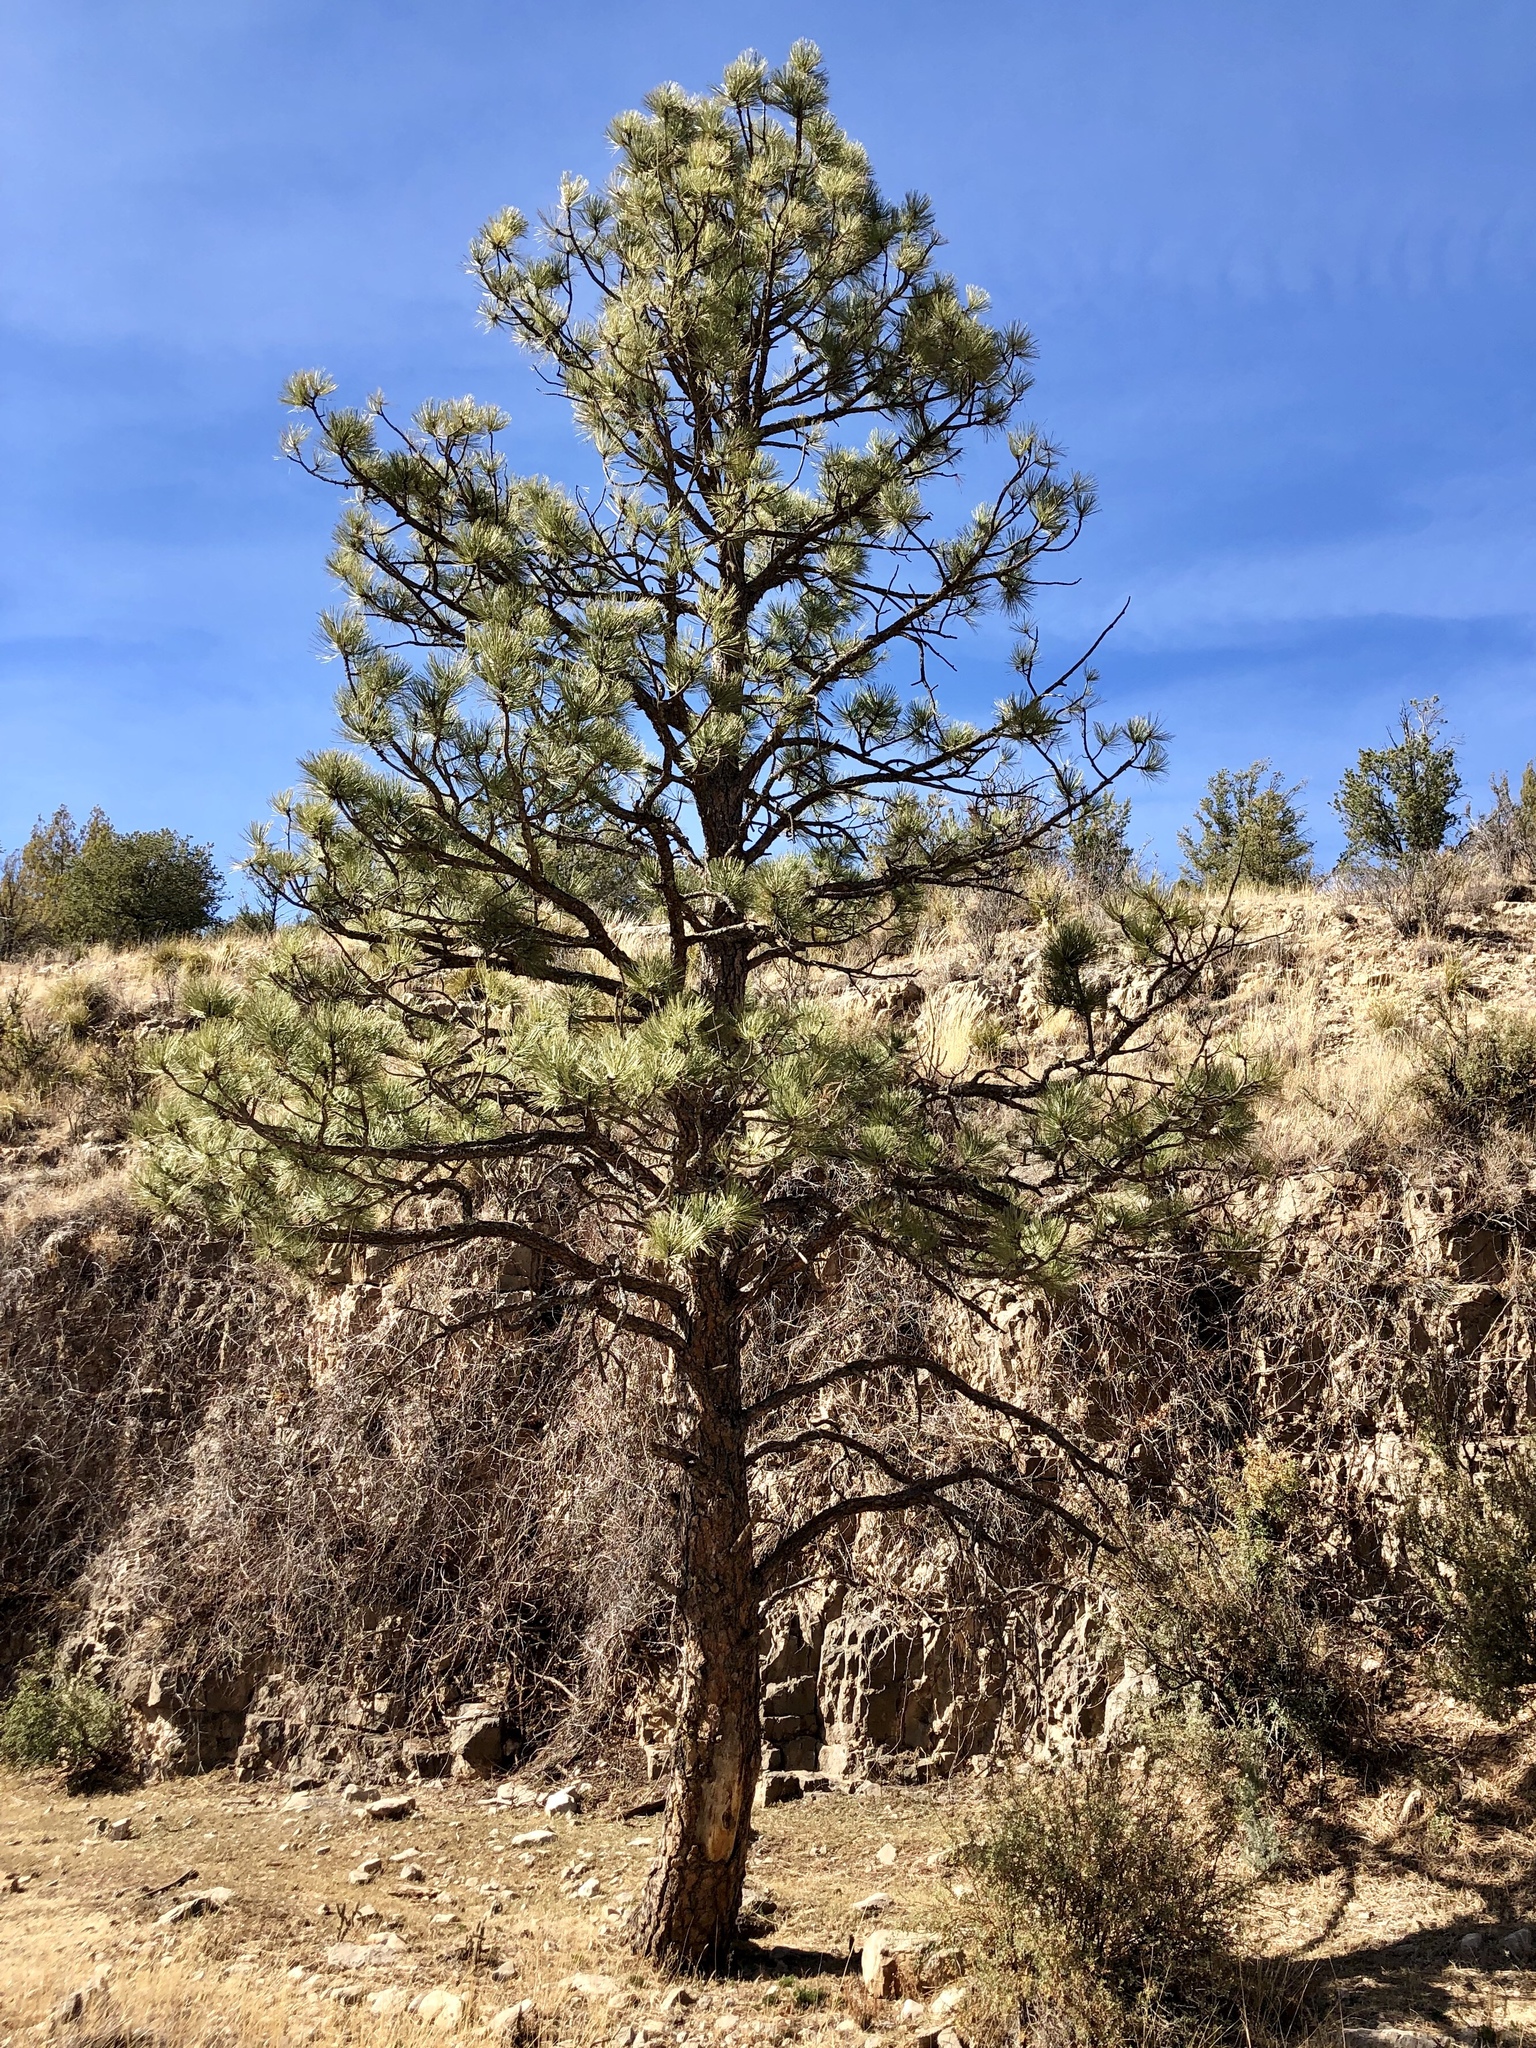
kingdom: Plantae
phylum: Tracheophyta
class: Pinopsida
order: Pinales
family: Pinaceae
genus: Pinus
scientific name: Pinus ponderosa
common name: Western yellow-pine
